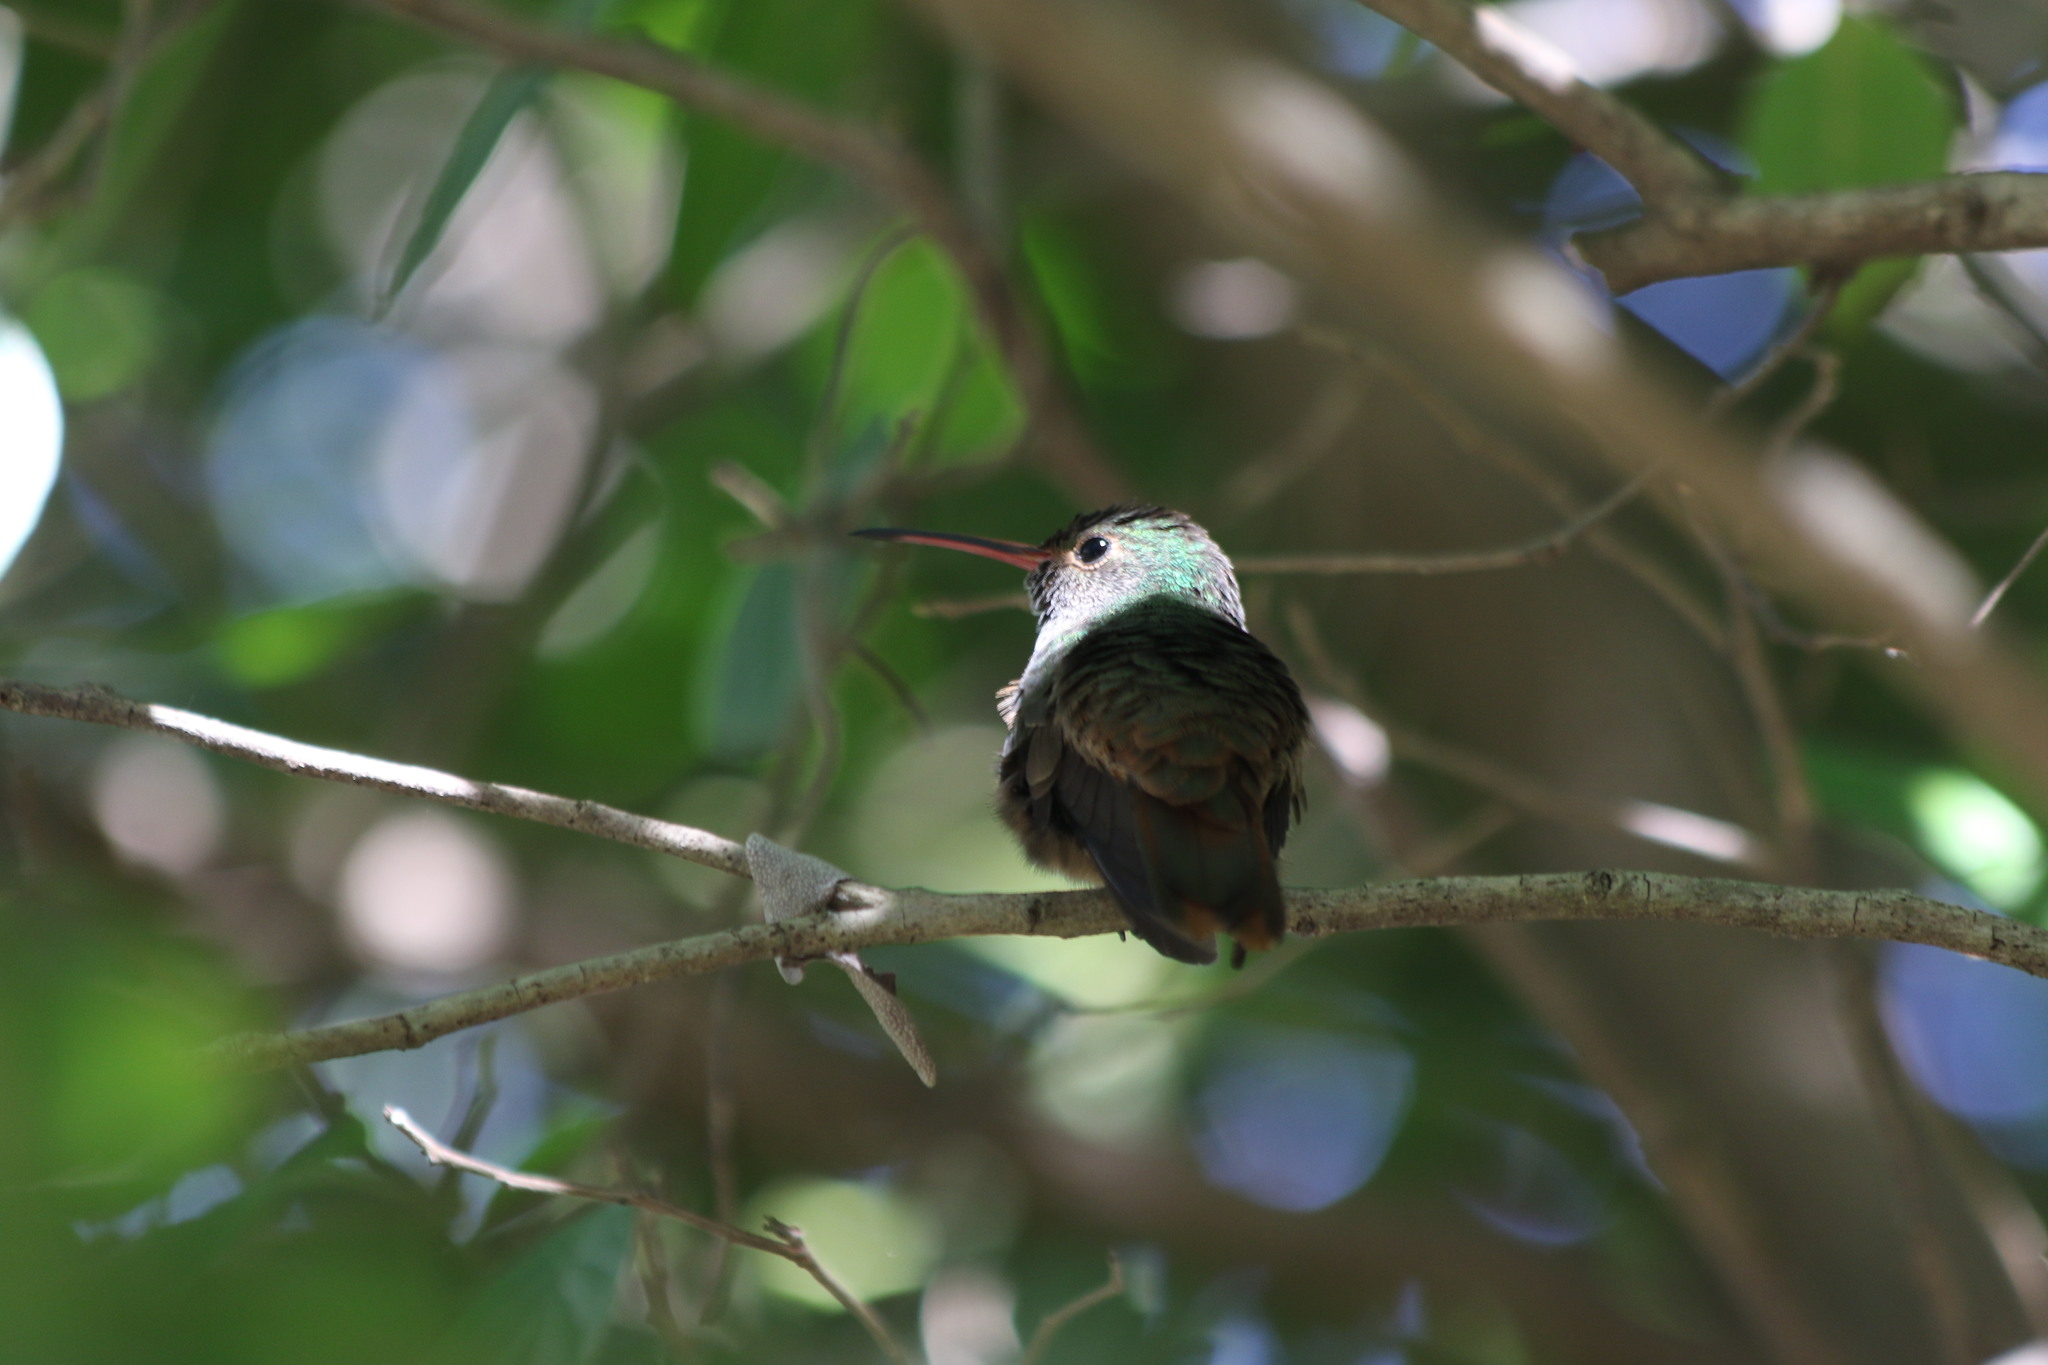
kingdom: Animalia
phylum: Chordata
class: Aves
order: Apodiformes
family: Trochilidae
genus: Amazilia
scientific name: Amazilia yucatanensis
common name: Buff-bellied hummingbird
